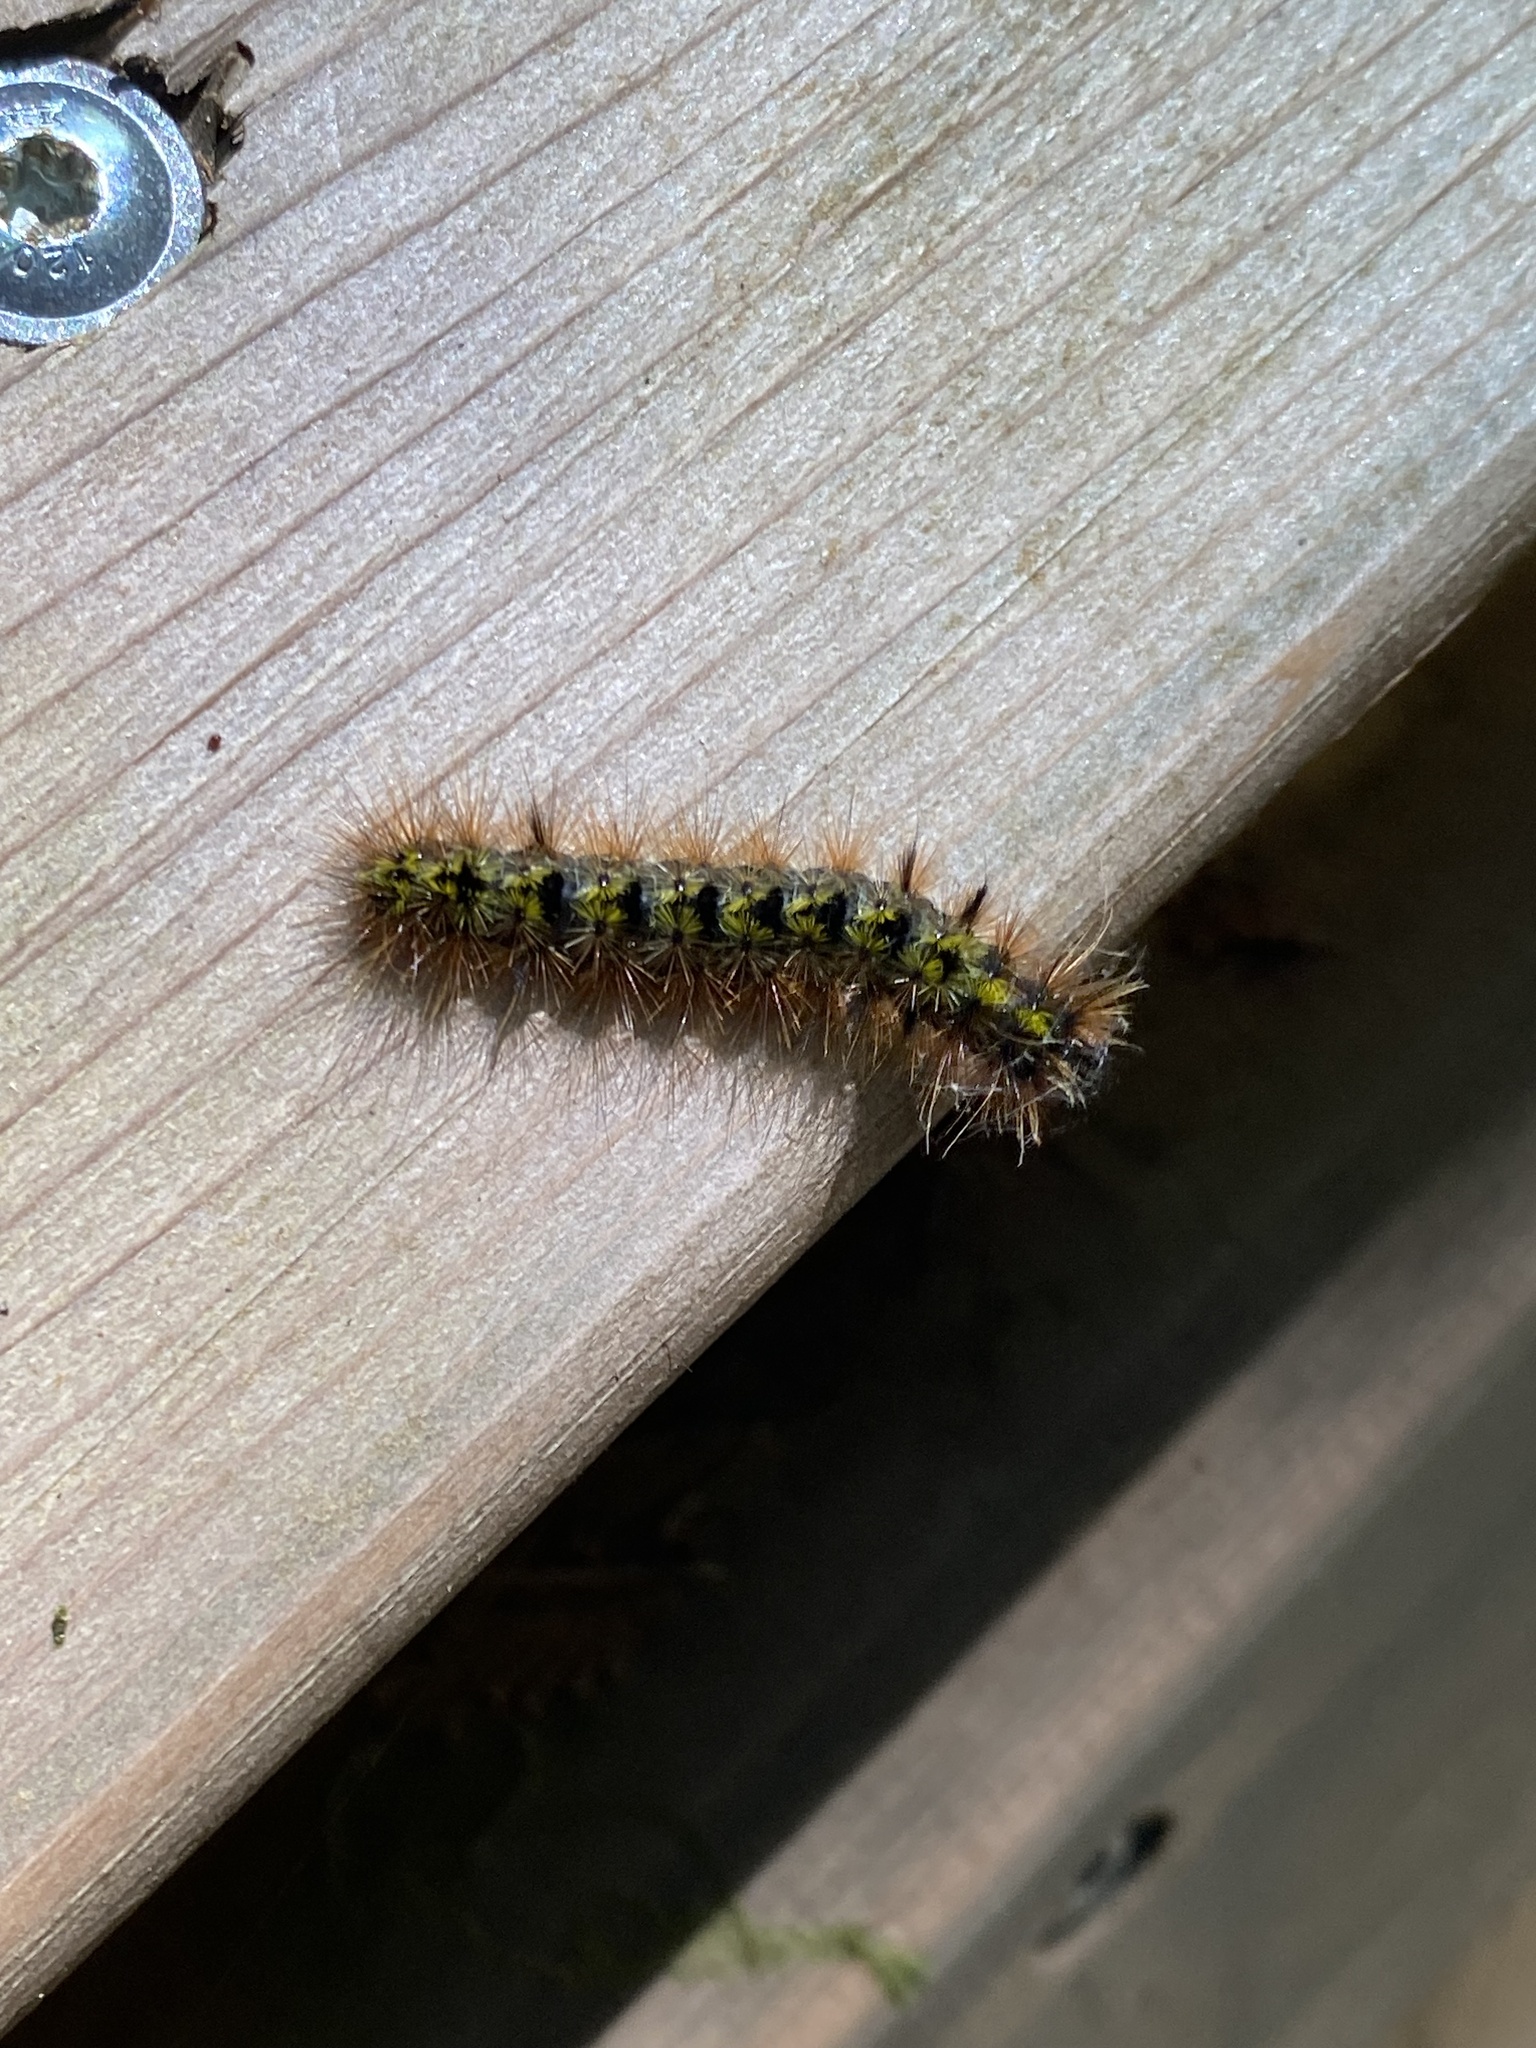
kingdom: Animalia
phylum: Arthropoda
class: Insecta
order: Lepidoptera
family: Erebidae
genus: Lophocampa
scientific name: Lophocampa argentata
